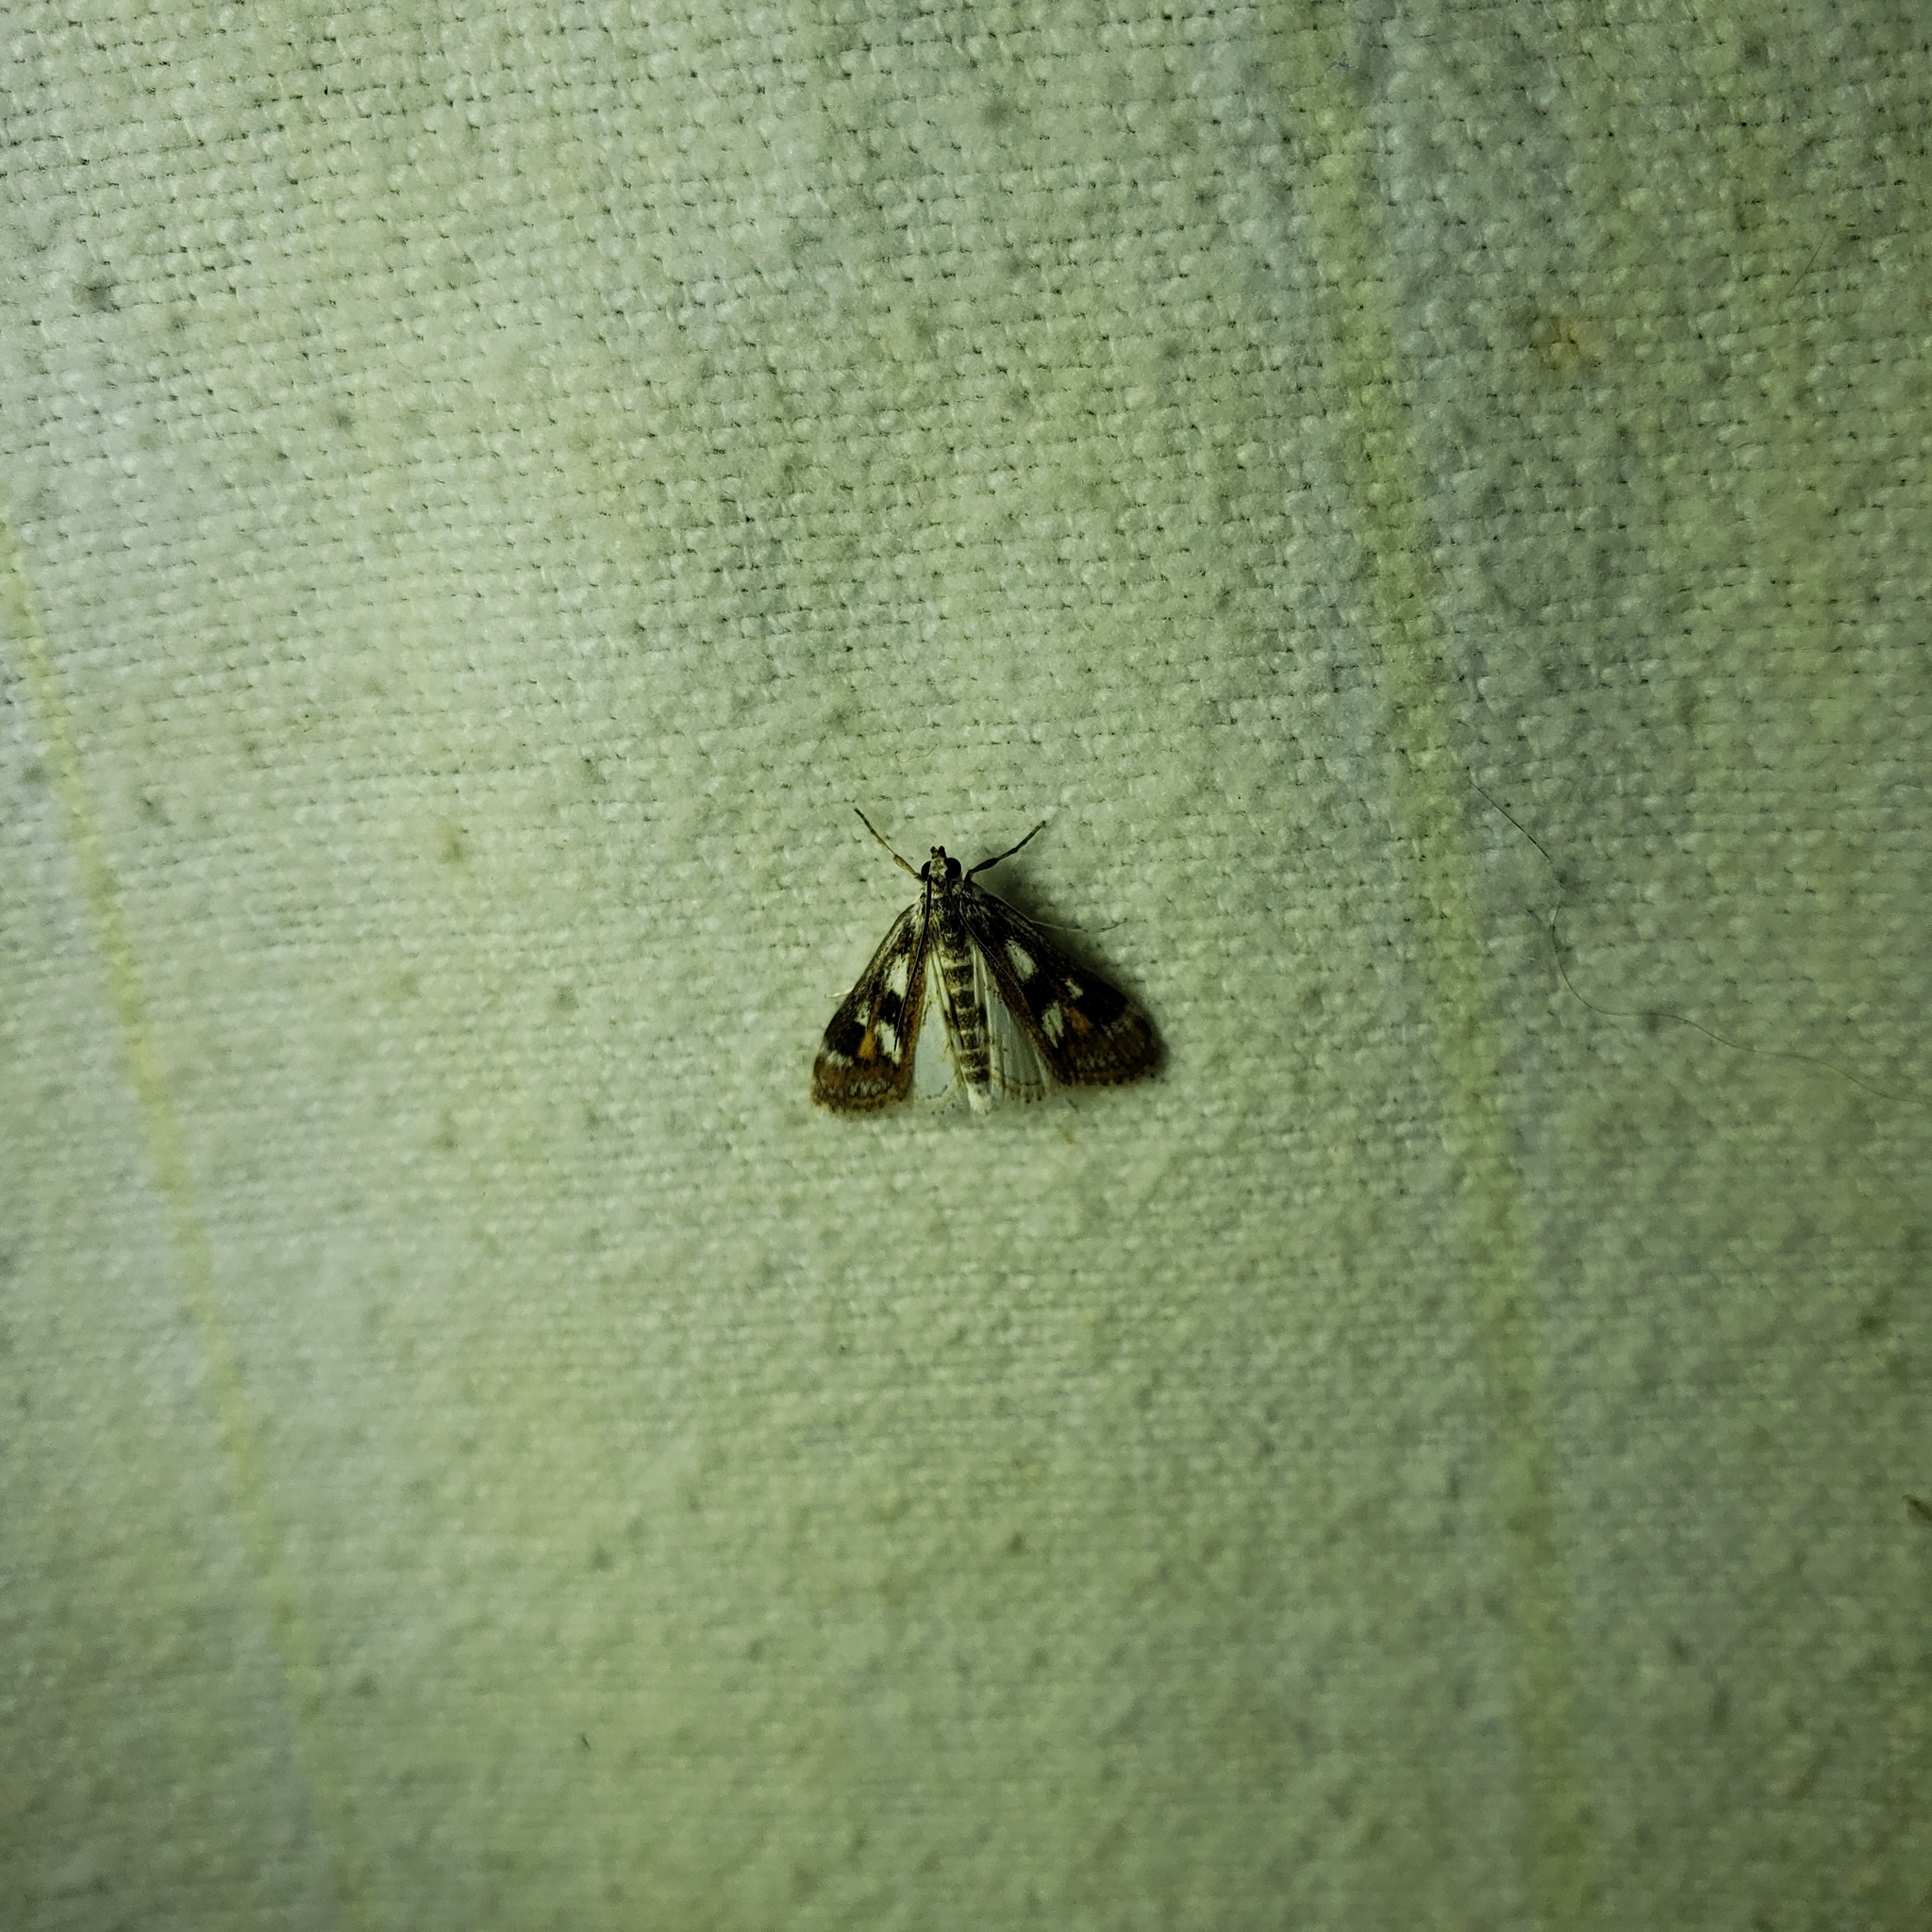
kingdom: Animalia
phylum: Arthropoda
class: Insecta
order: Lepidoptera
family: Crambidae
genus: Parapoynx
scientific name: Parapoynx maculalis
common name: Polymorphic pondweed moth
